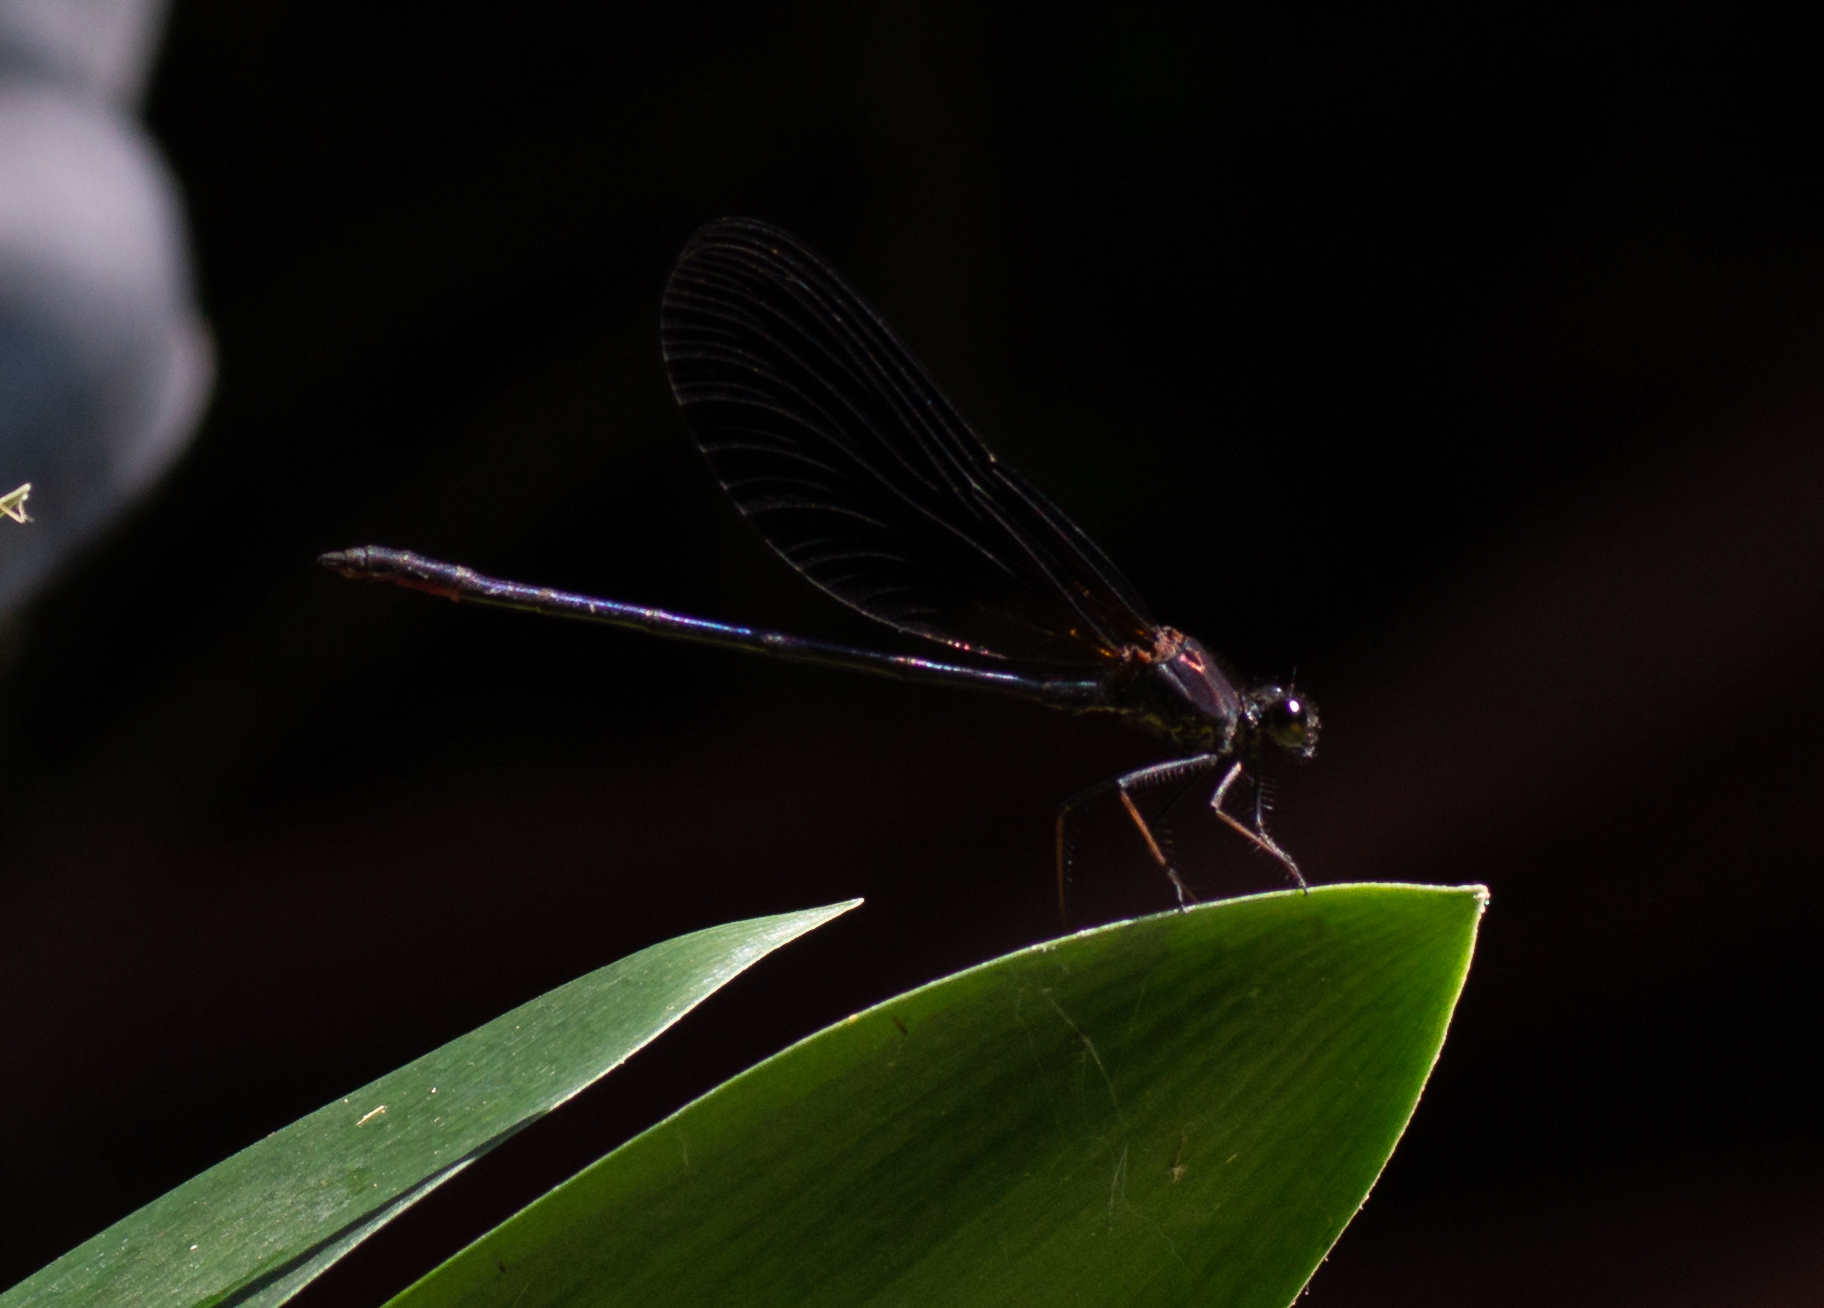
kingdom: Animalia
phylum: Arthropoda
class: Insecta
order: Odonata
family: Calopterygidae
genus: Calopteryx
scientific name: Calopteryx haemorrhoidalis
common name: Copper demoiselle
